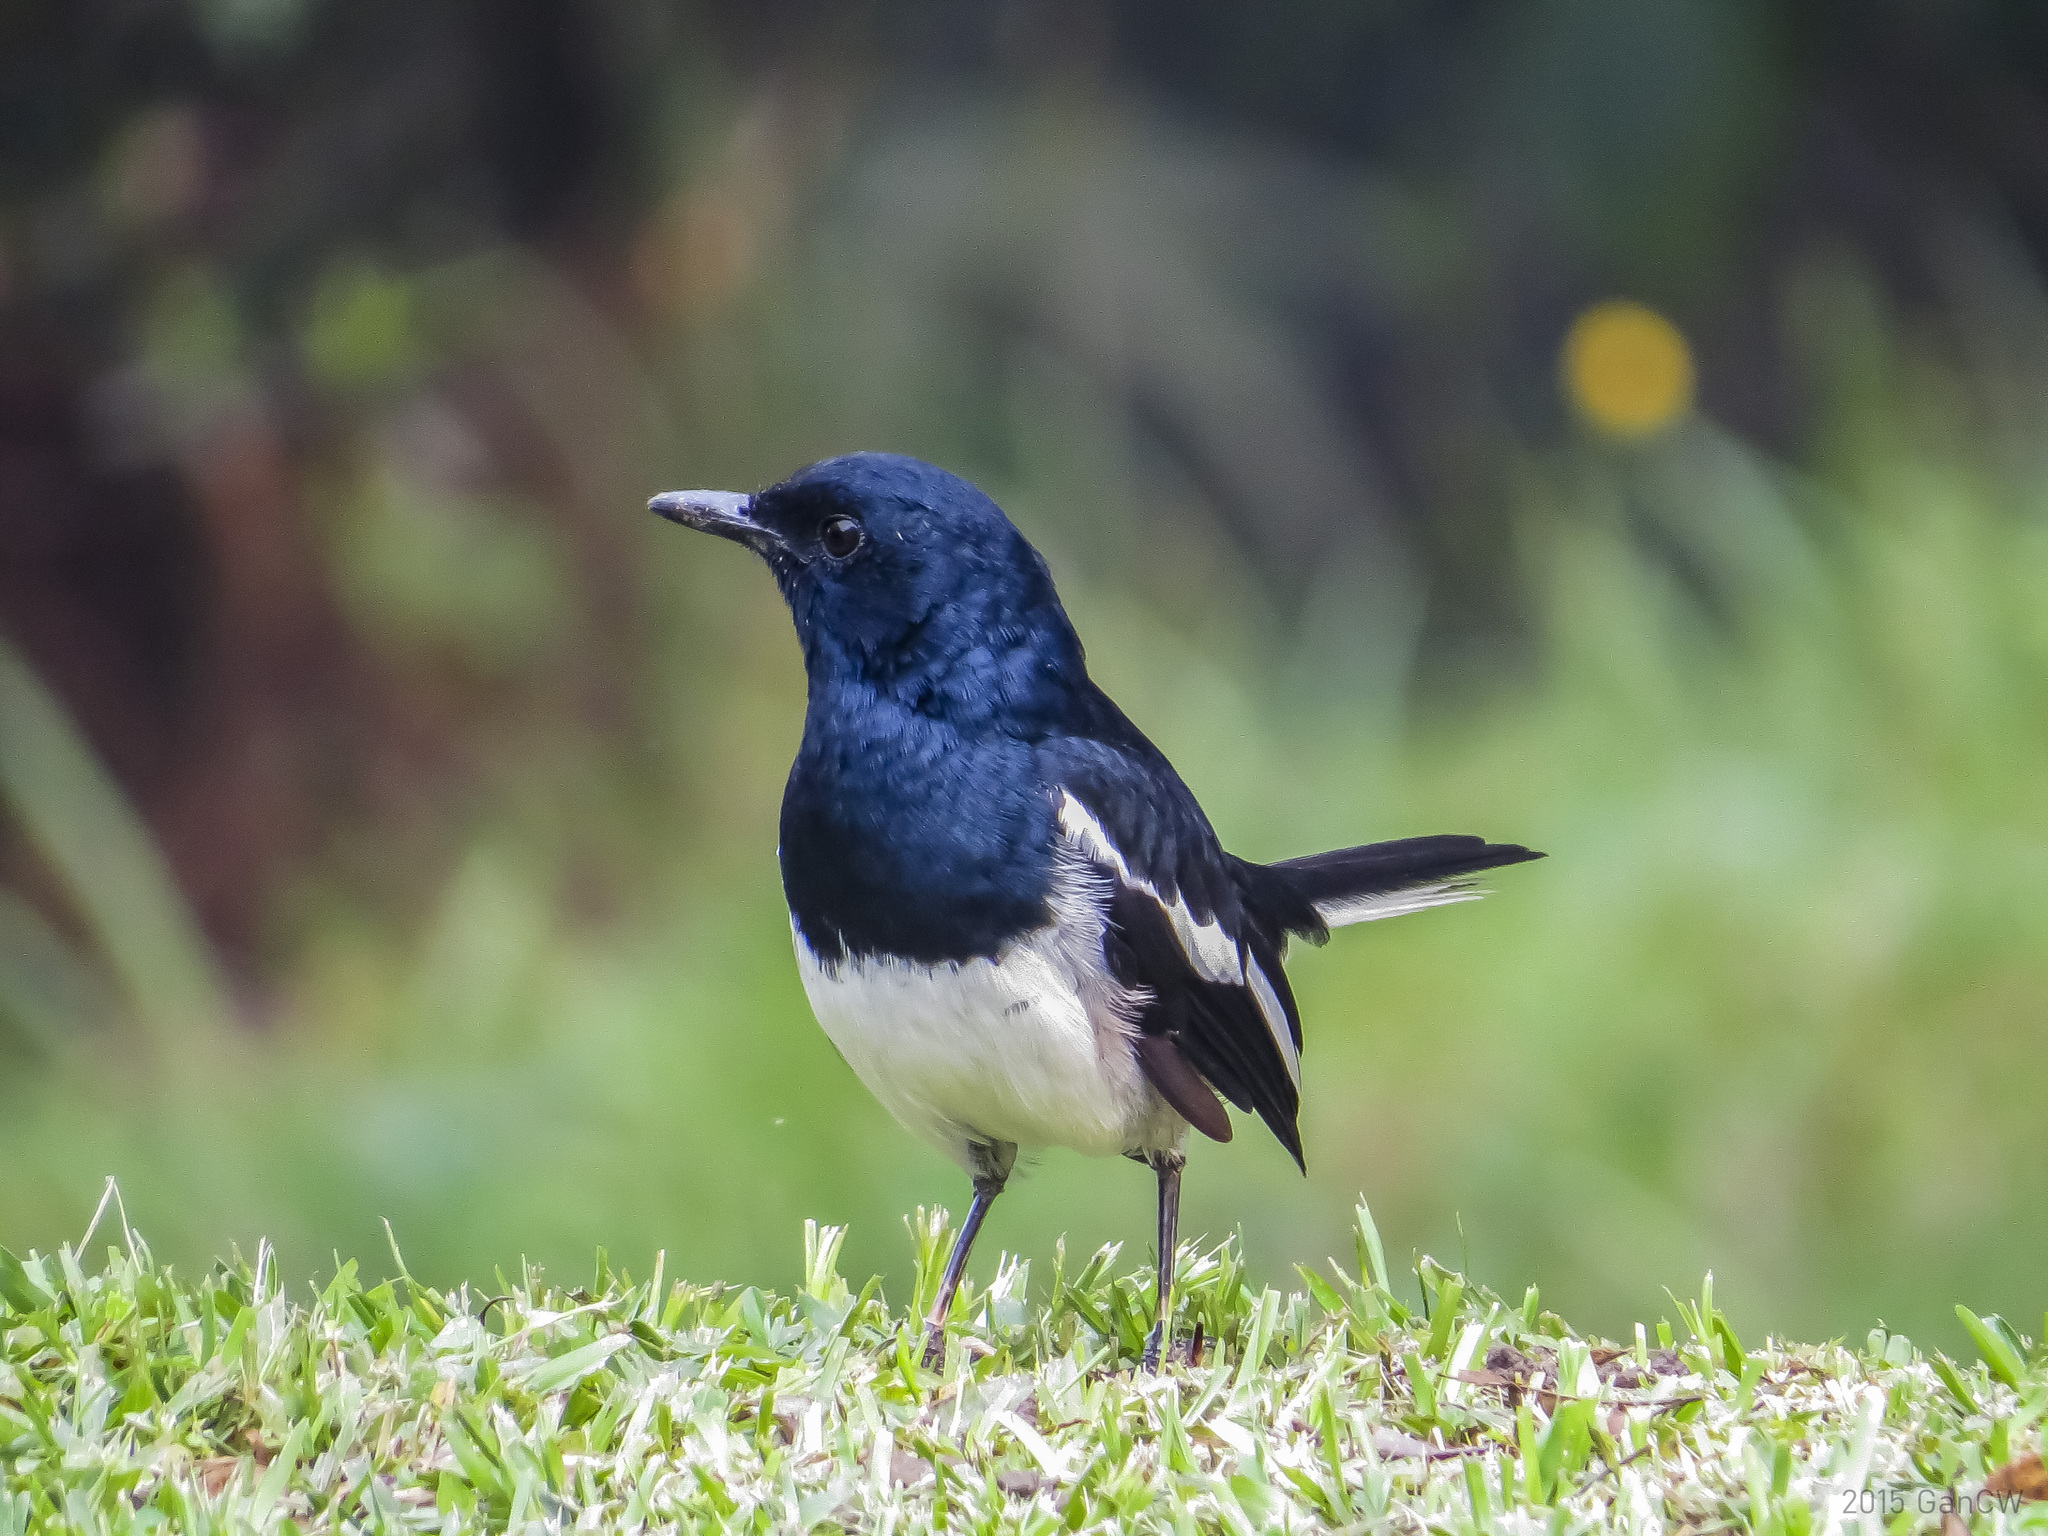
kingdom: Animalia
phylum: Chordata
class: Aves
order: Passeriformes
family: Muscicapidae
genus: Copsychus
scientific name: Copsychus saularis
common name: Oriental magpie-robin
